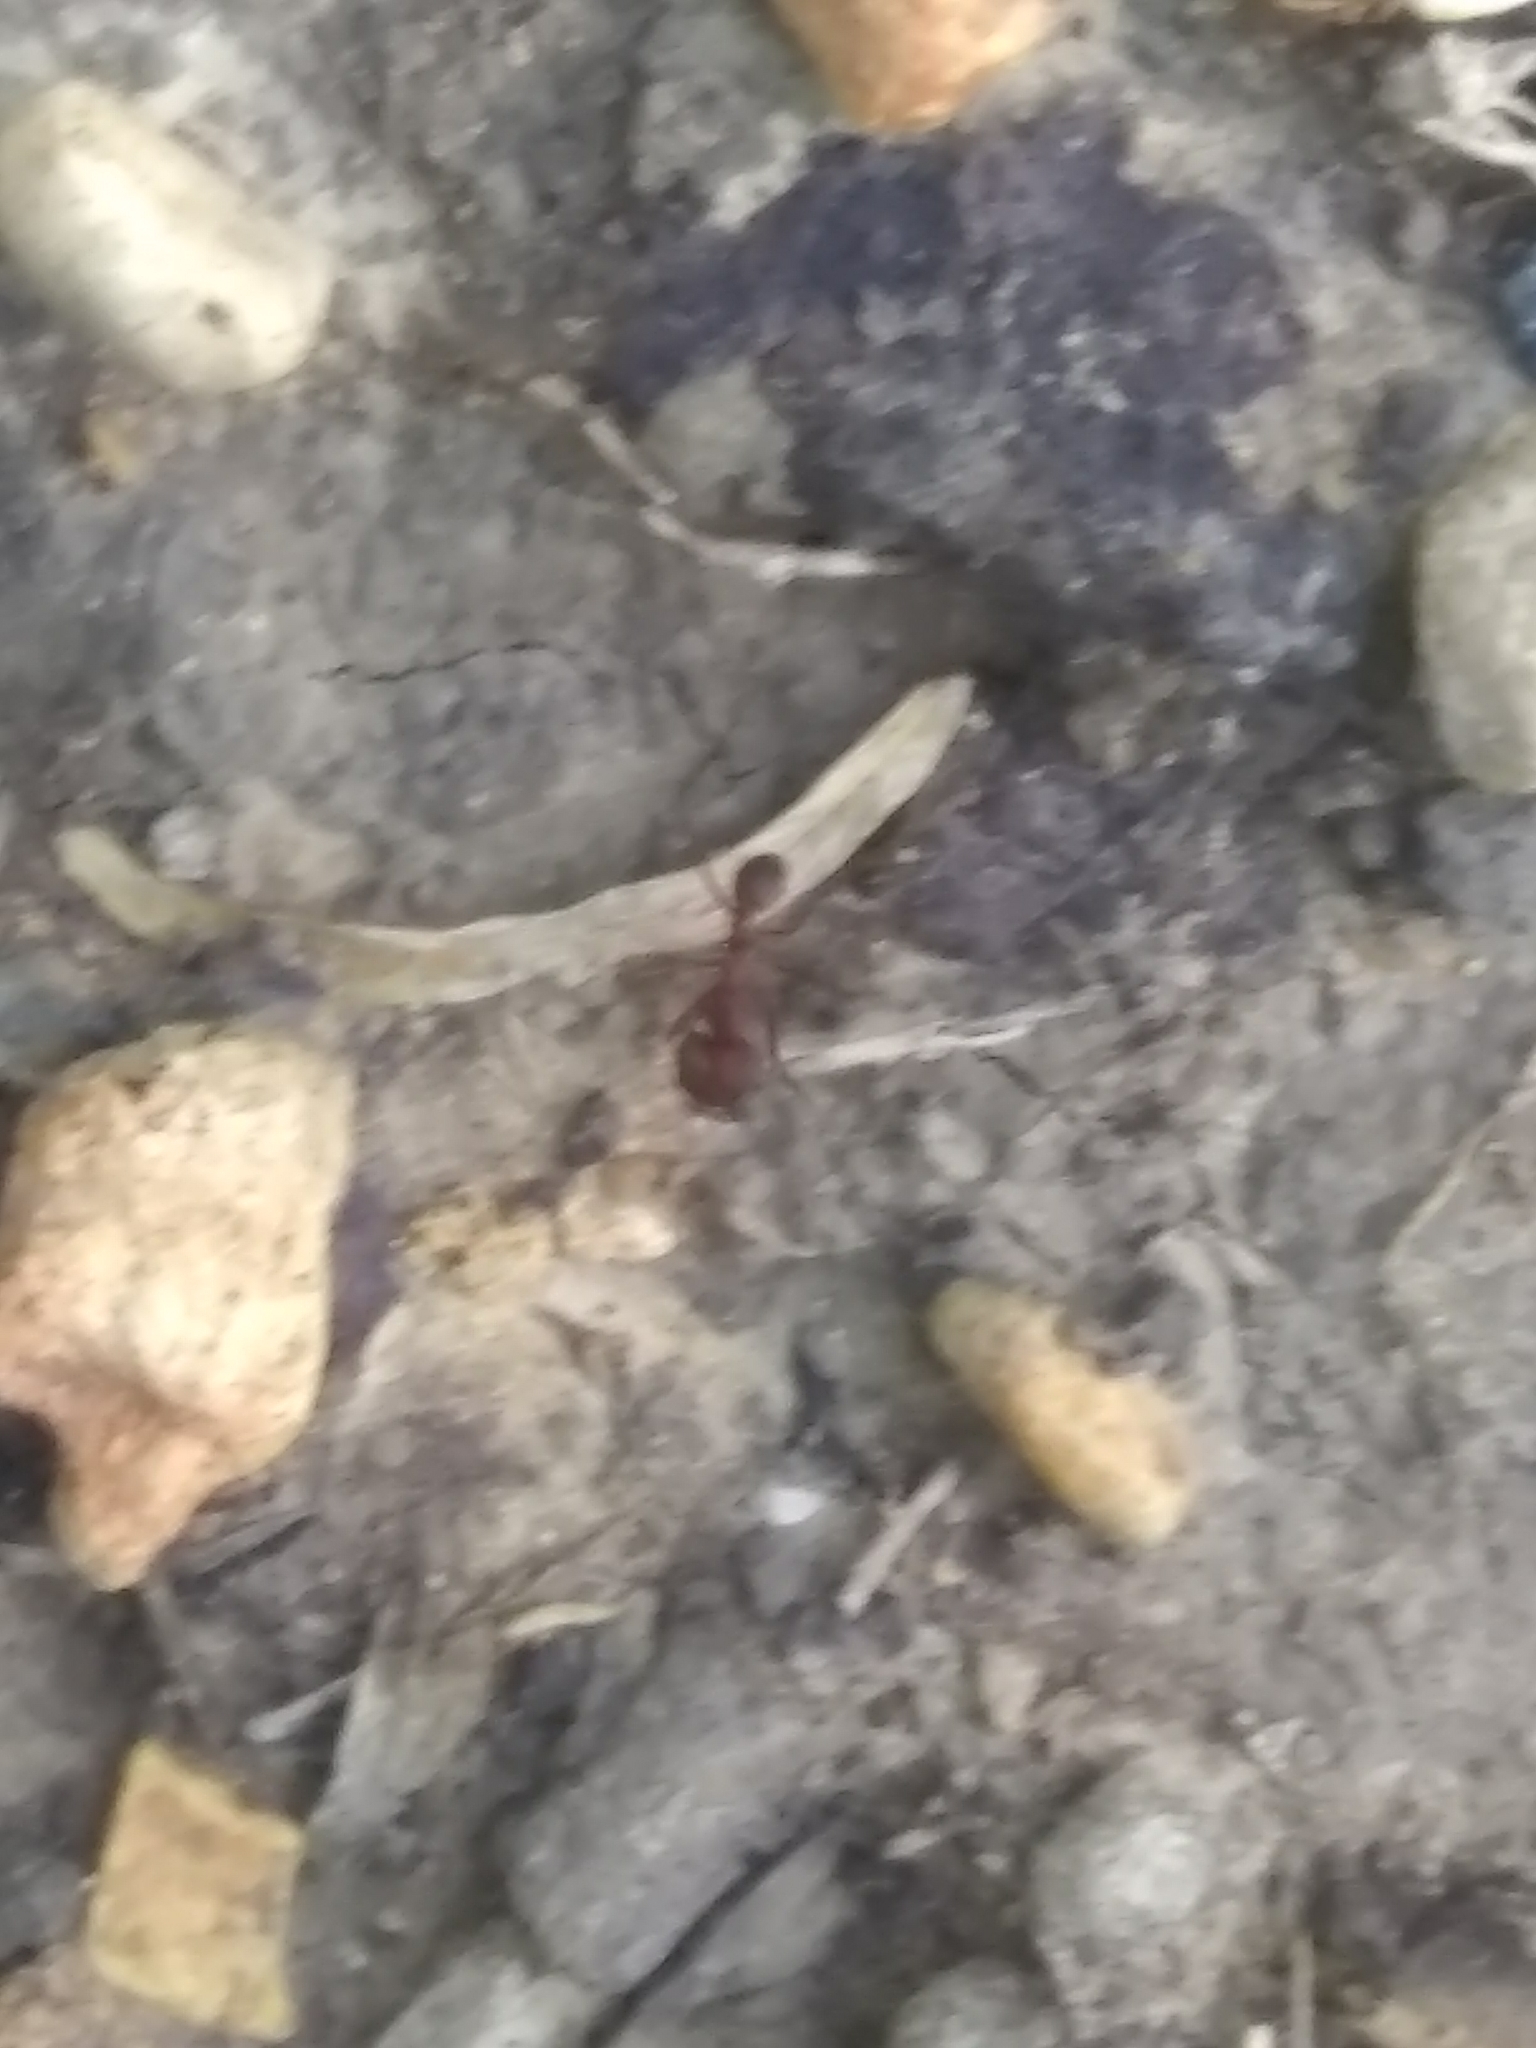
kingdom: Animalia
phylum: Arthropoda
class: Insecta
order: Hymenoptera
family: Formicidae
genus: Atta
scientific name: Atta texana
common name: Texas leafcutting ant
